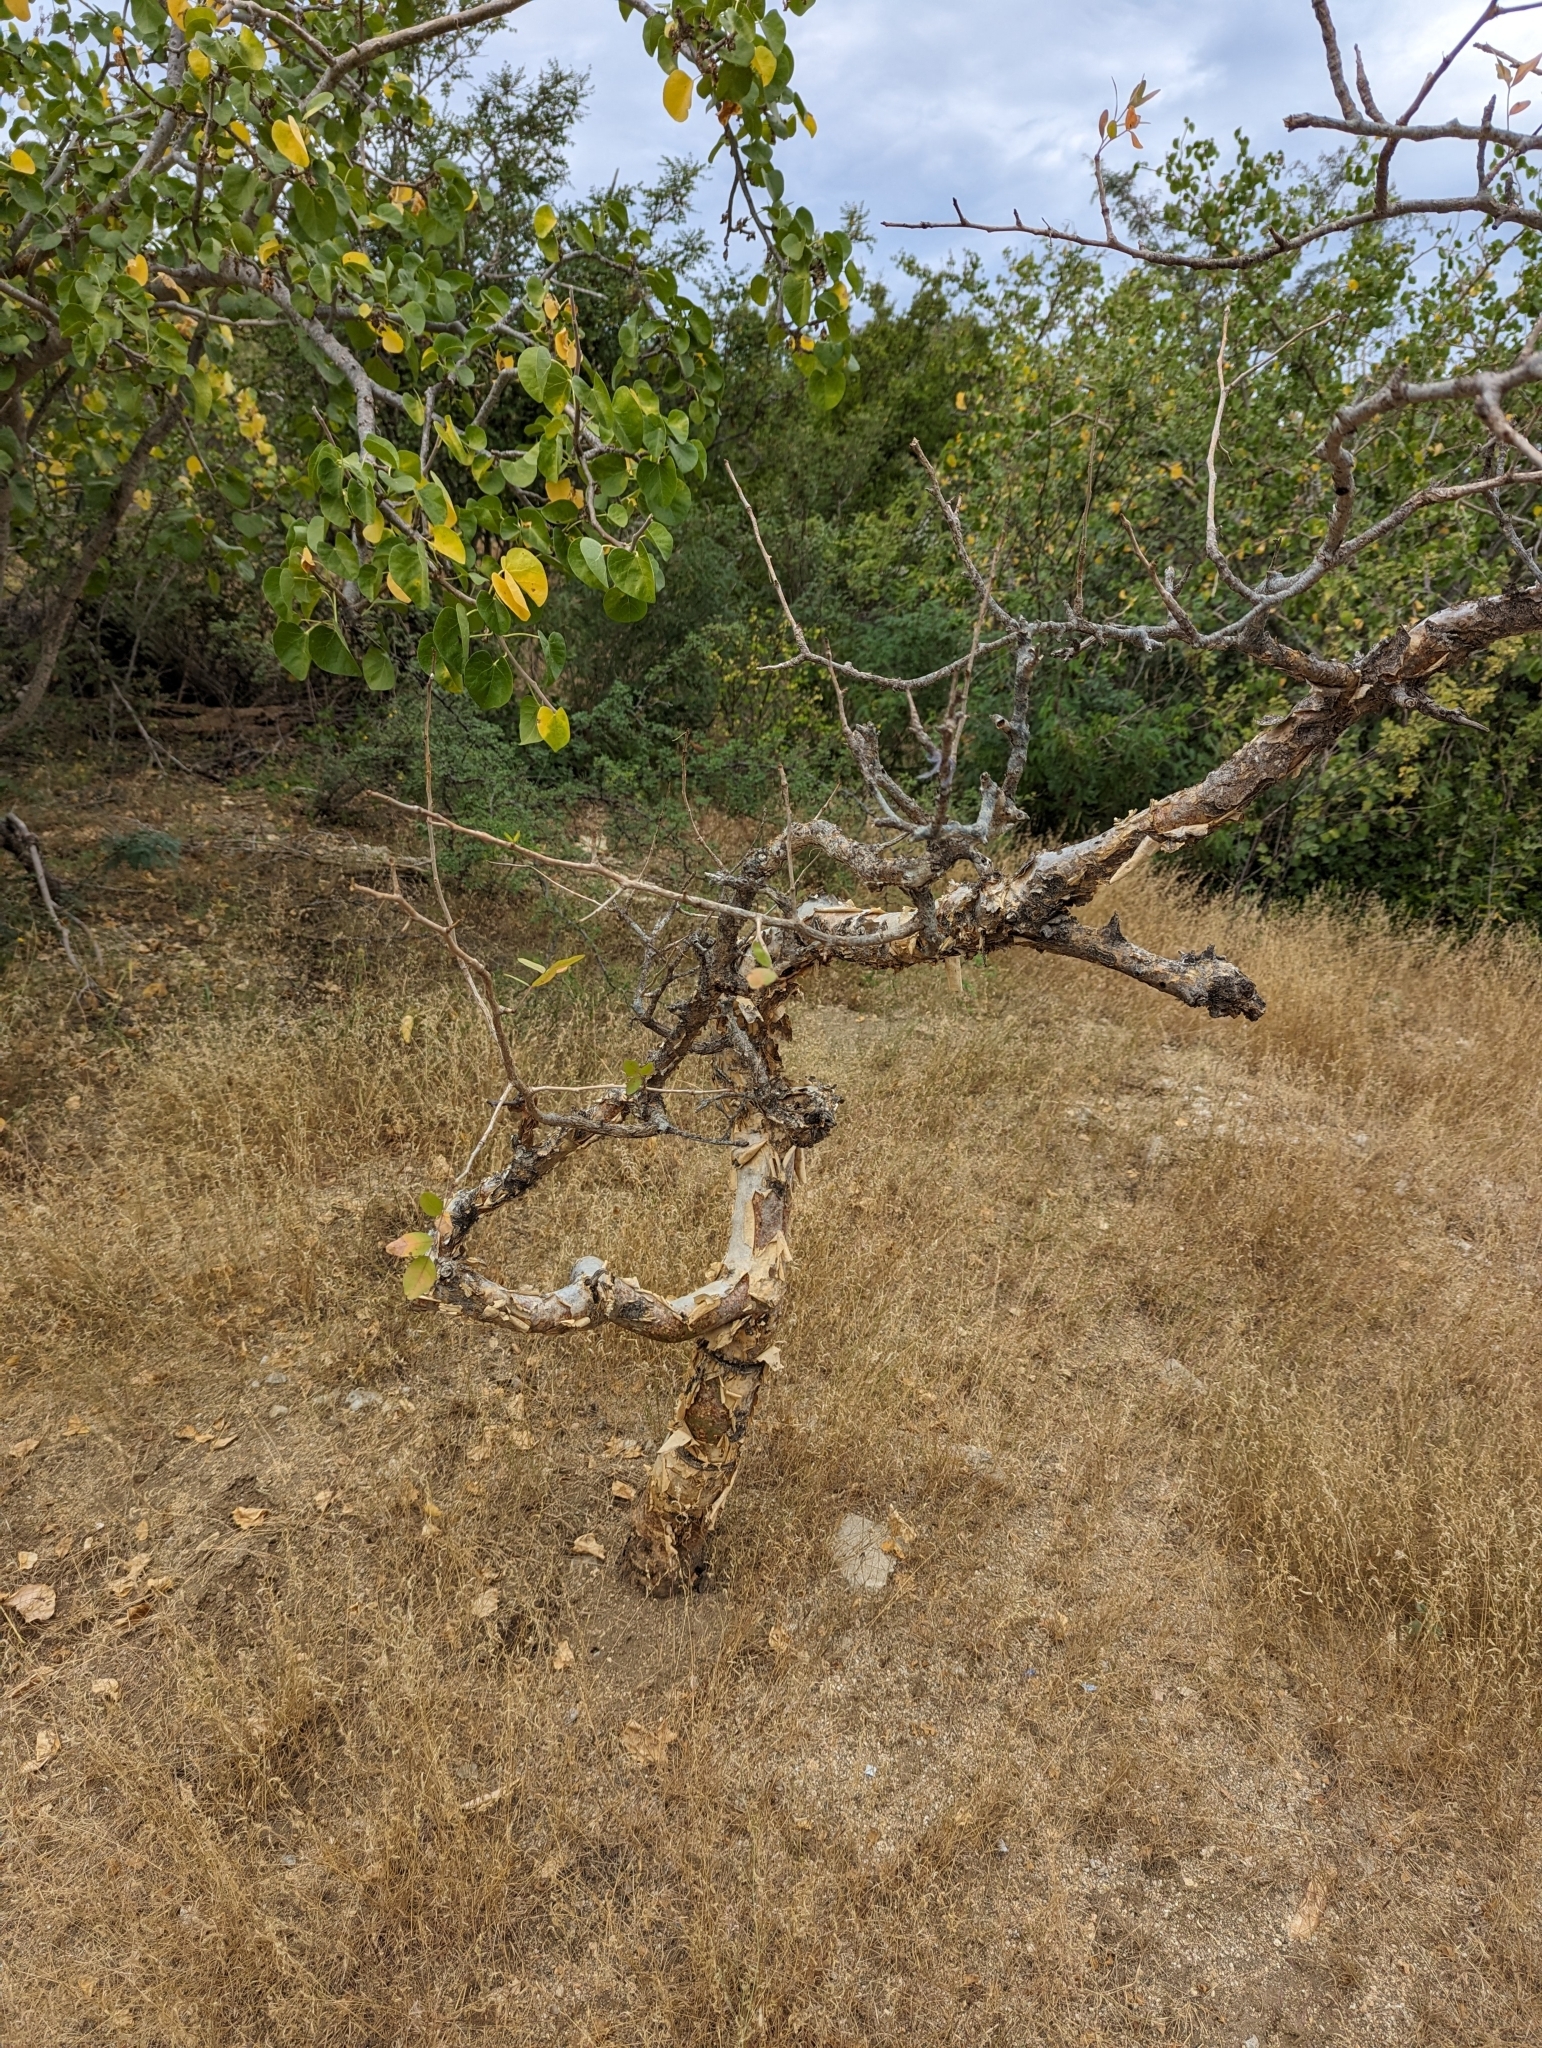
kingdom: Plantae
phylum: Tracheophyta
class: Magnoliopsida
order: Sapindales
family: Burseraceae
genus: Bursera
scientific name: Bursera fagaroides
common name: Elephant tree
